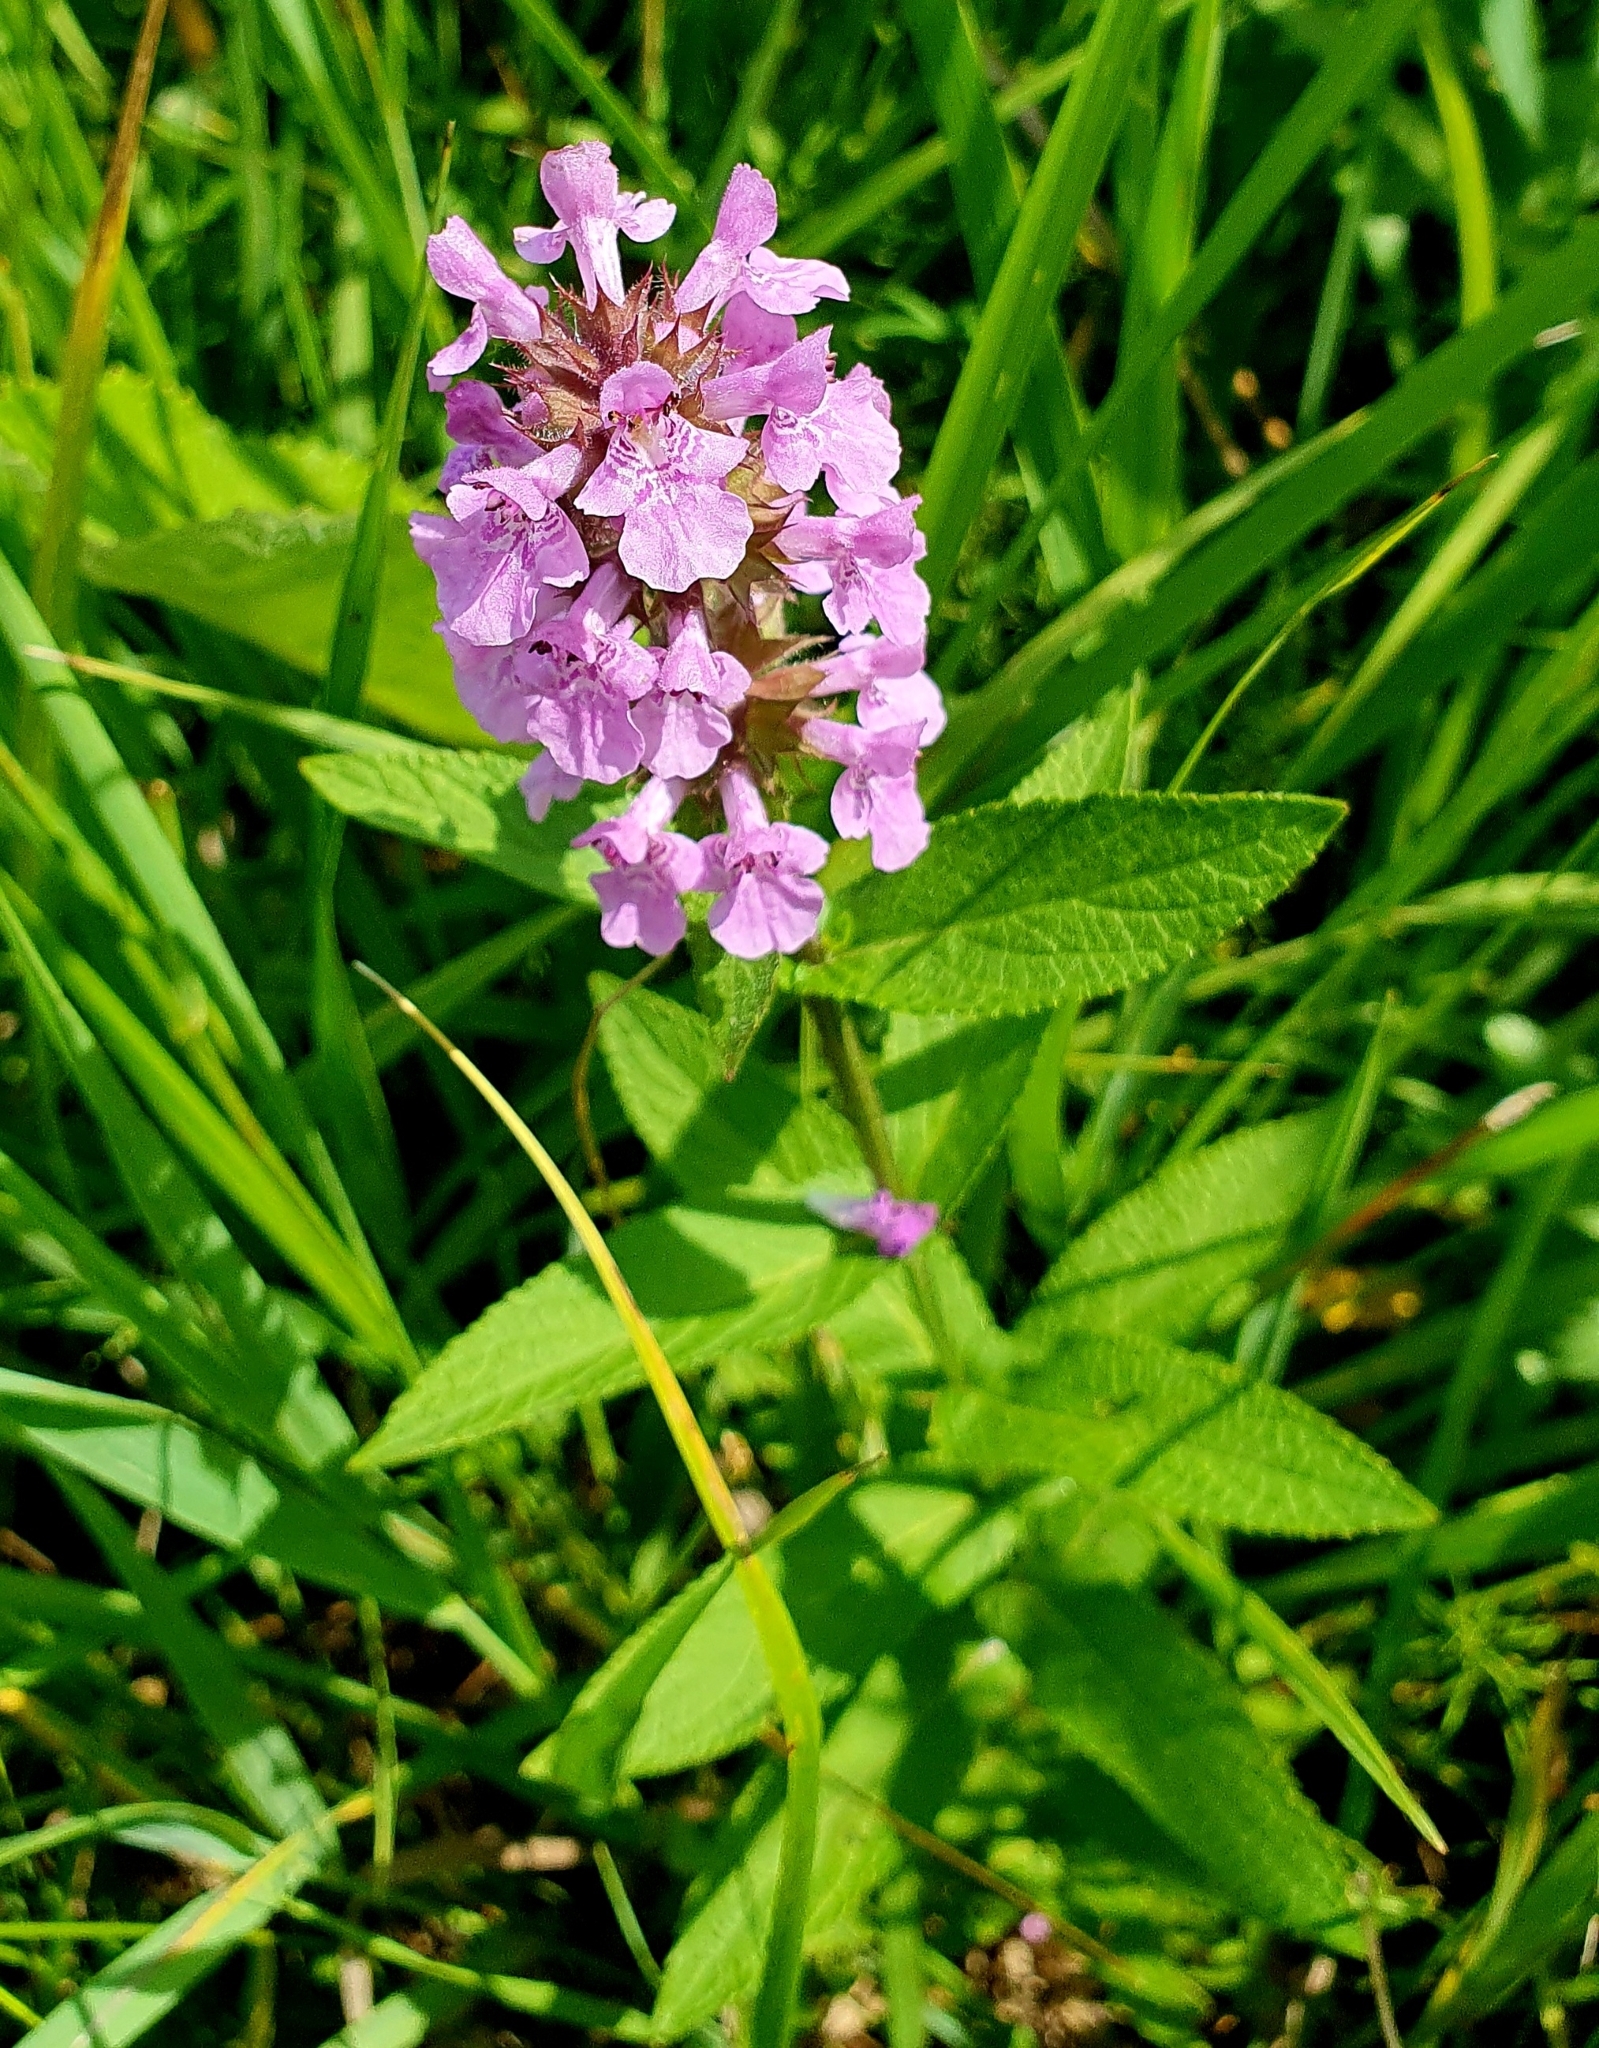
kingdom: Plantae
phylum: Tracheophyta
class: Magnoliopsida
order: Lamiales
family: Lamiaceae
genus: Stachys
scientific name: Stachys palustris
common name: Marsh woundwort
